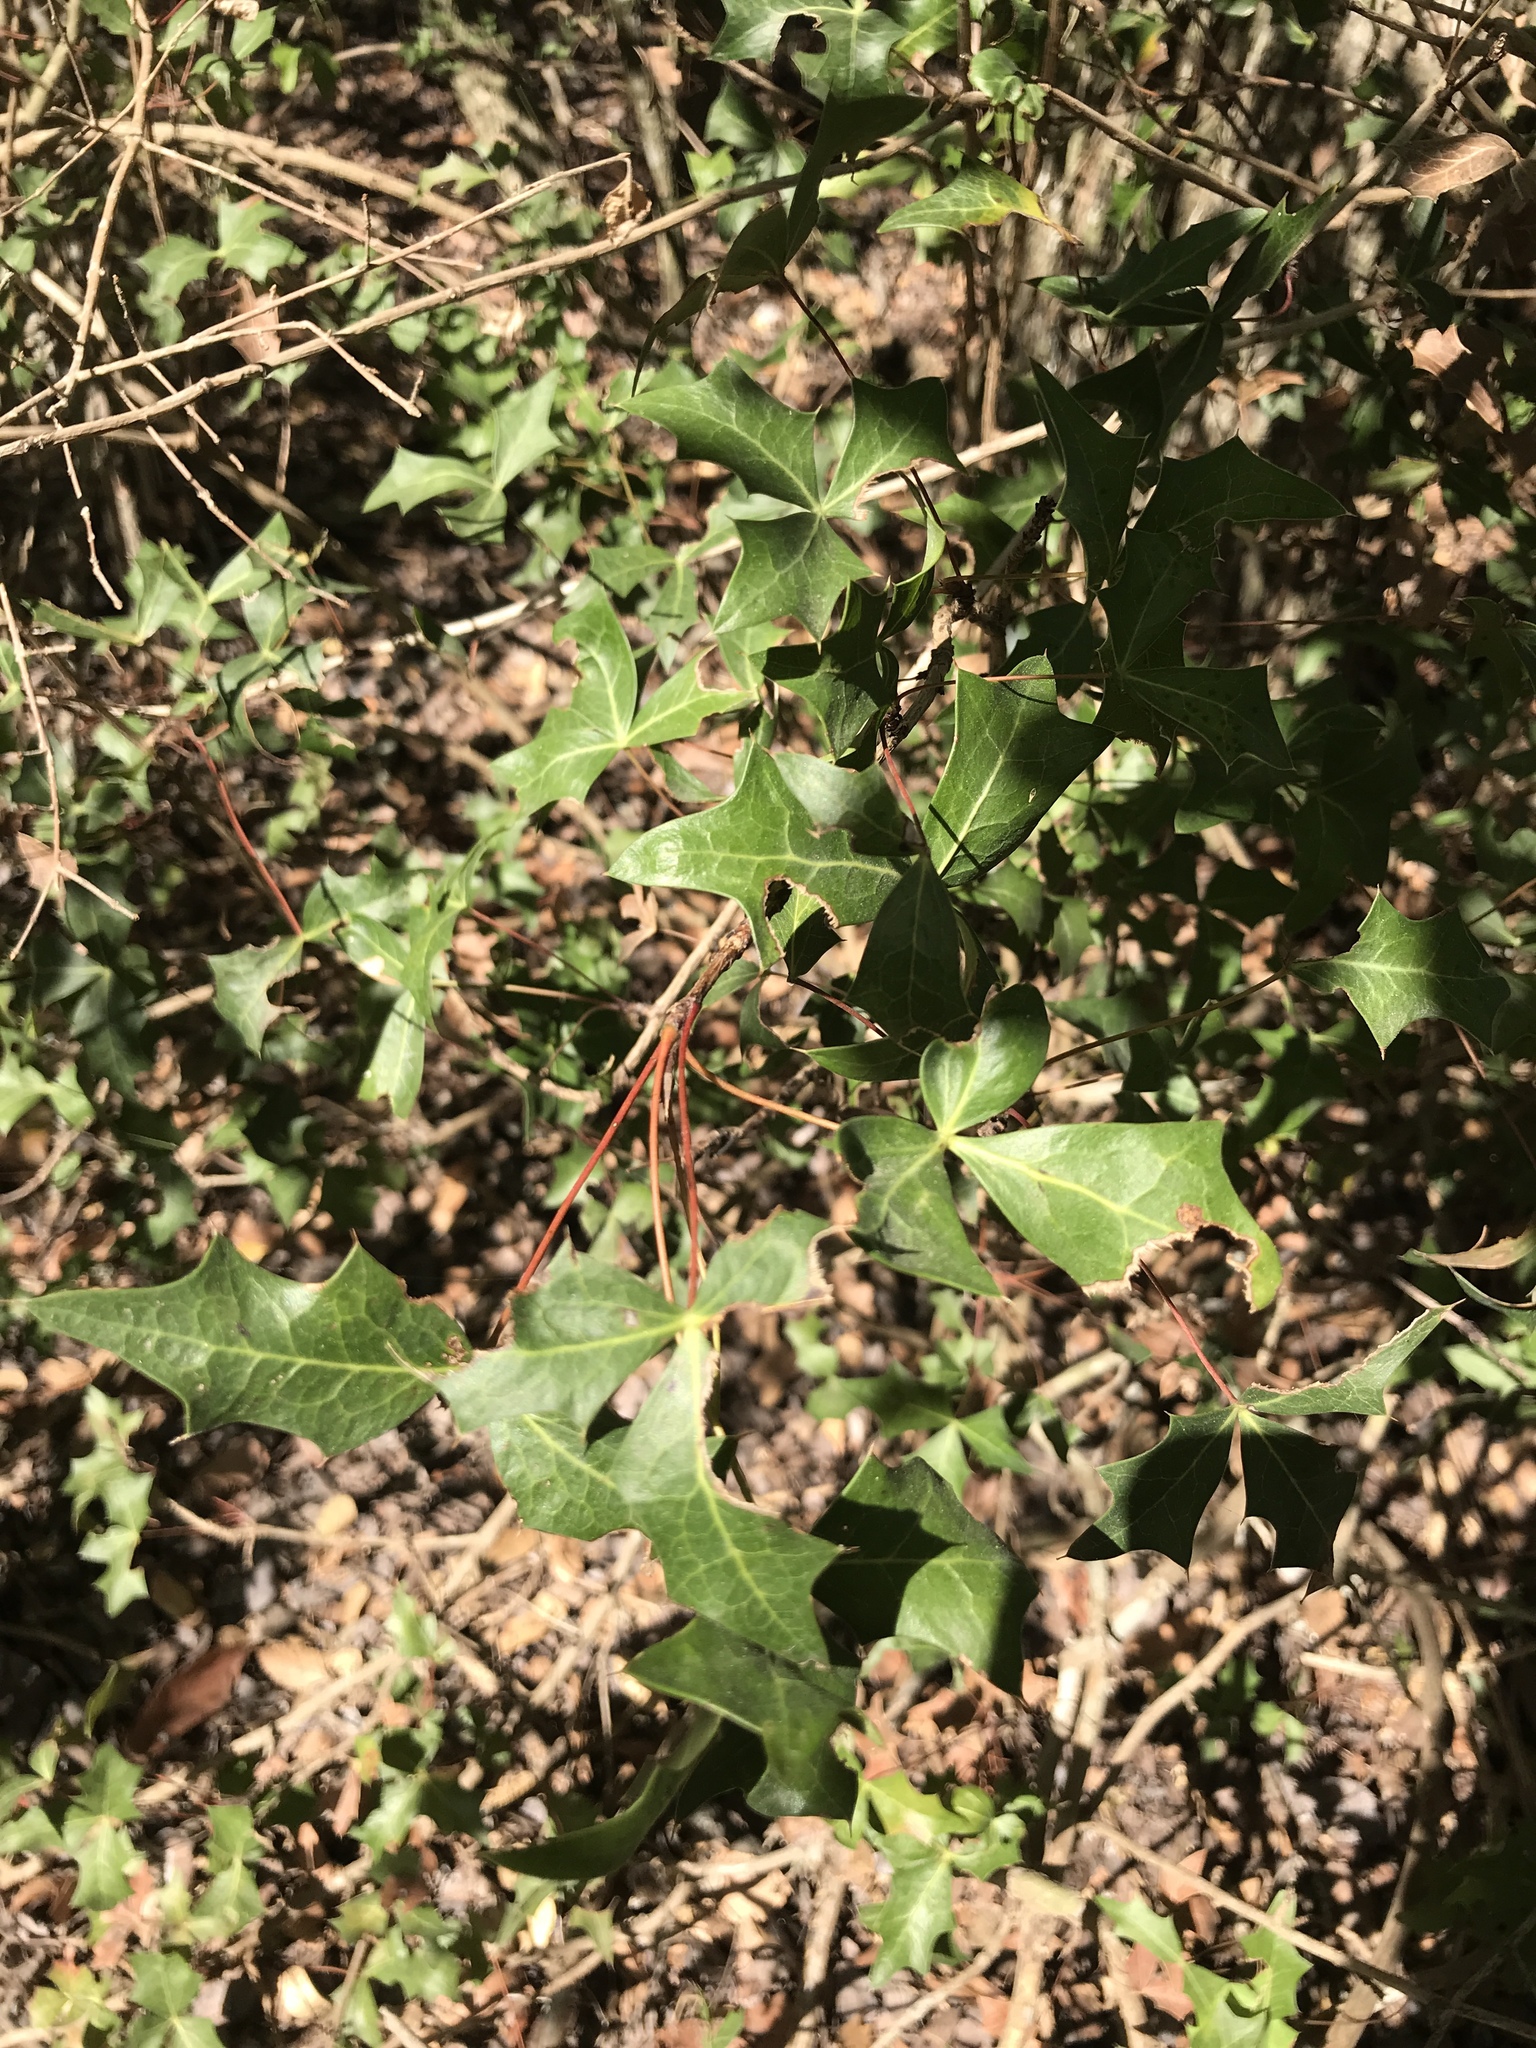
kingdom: Plantae
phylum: Tracheophyta
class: Magnoliopsida
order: Ranunculales
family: Berberidaceae
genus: Alloberberis
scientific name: Alloberberis trifoliolata
